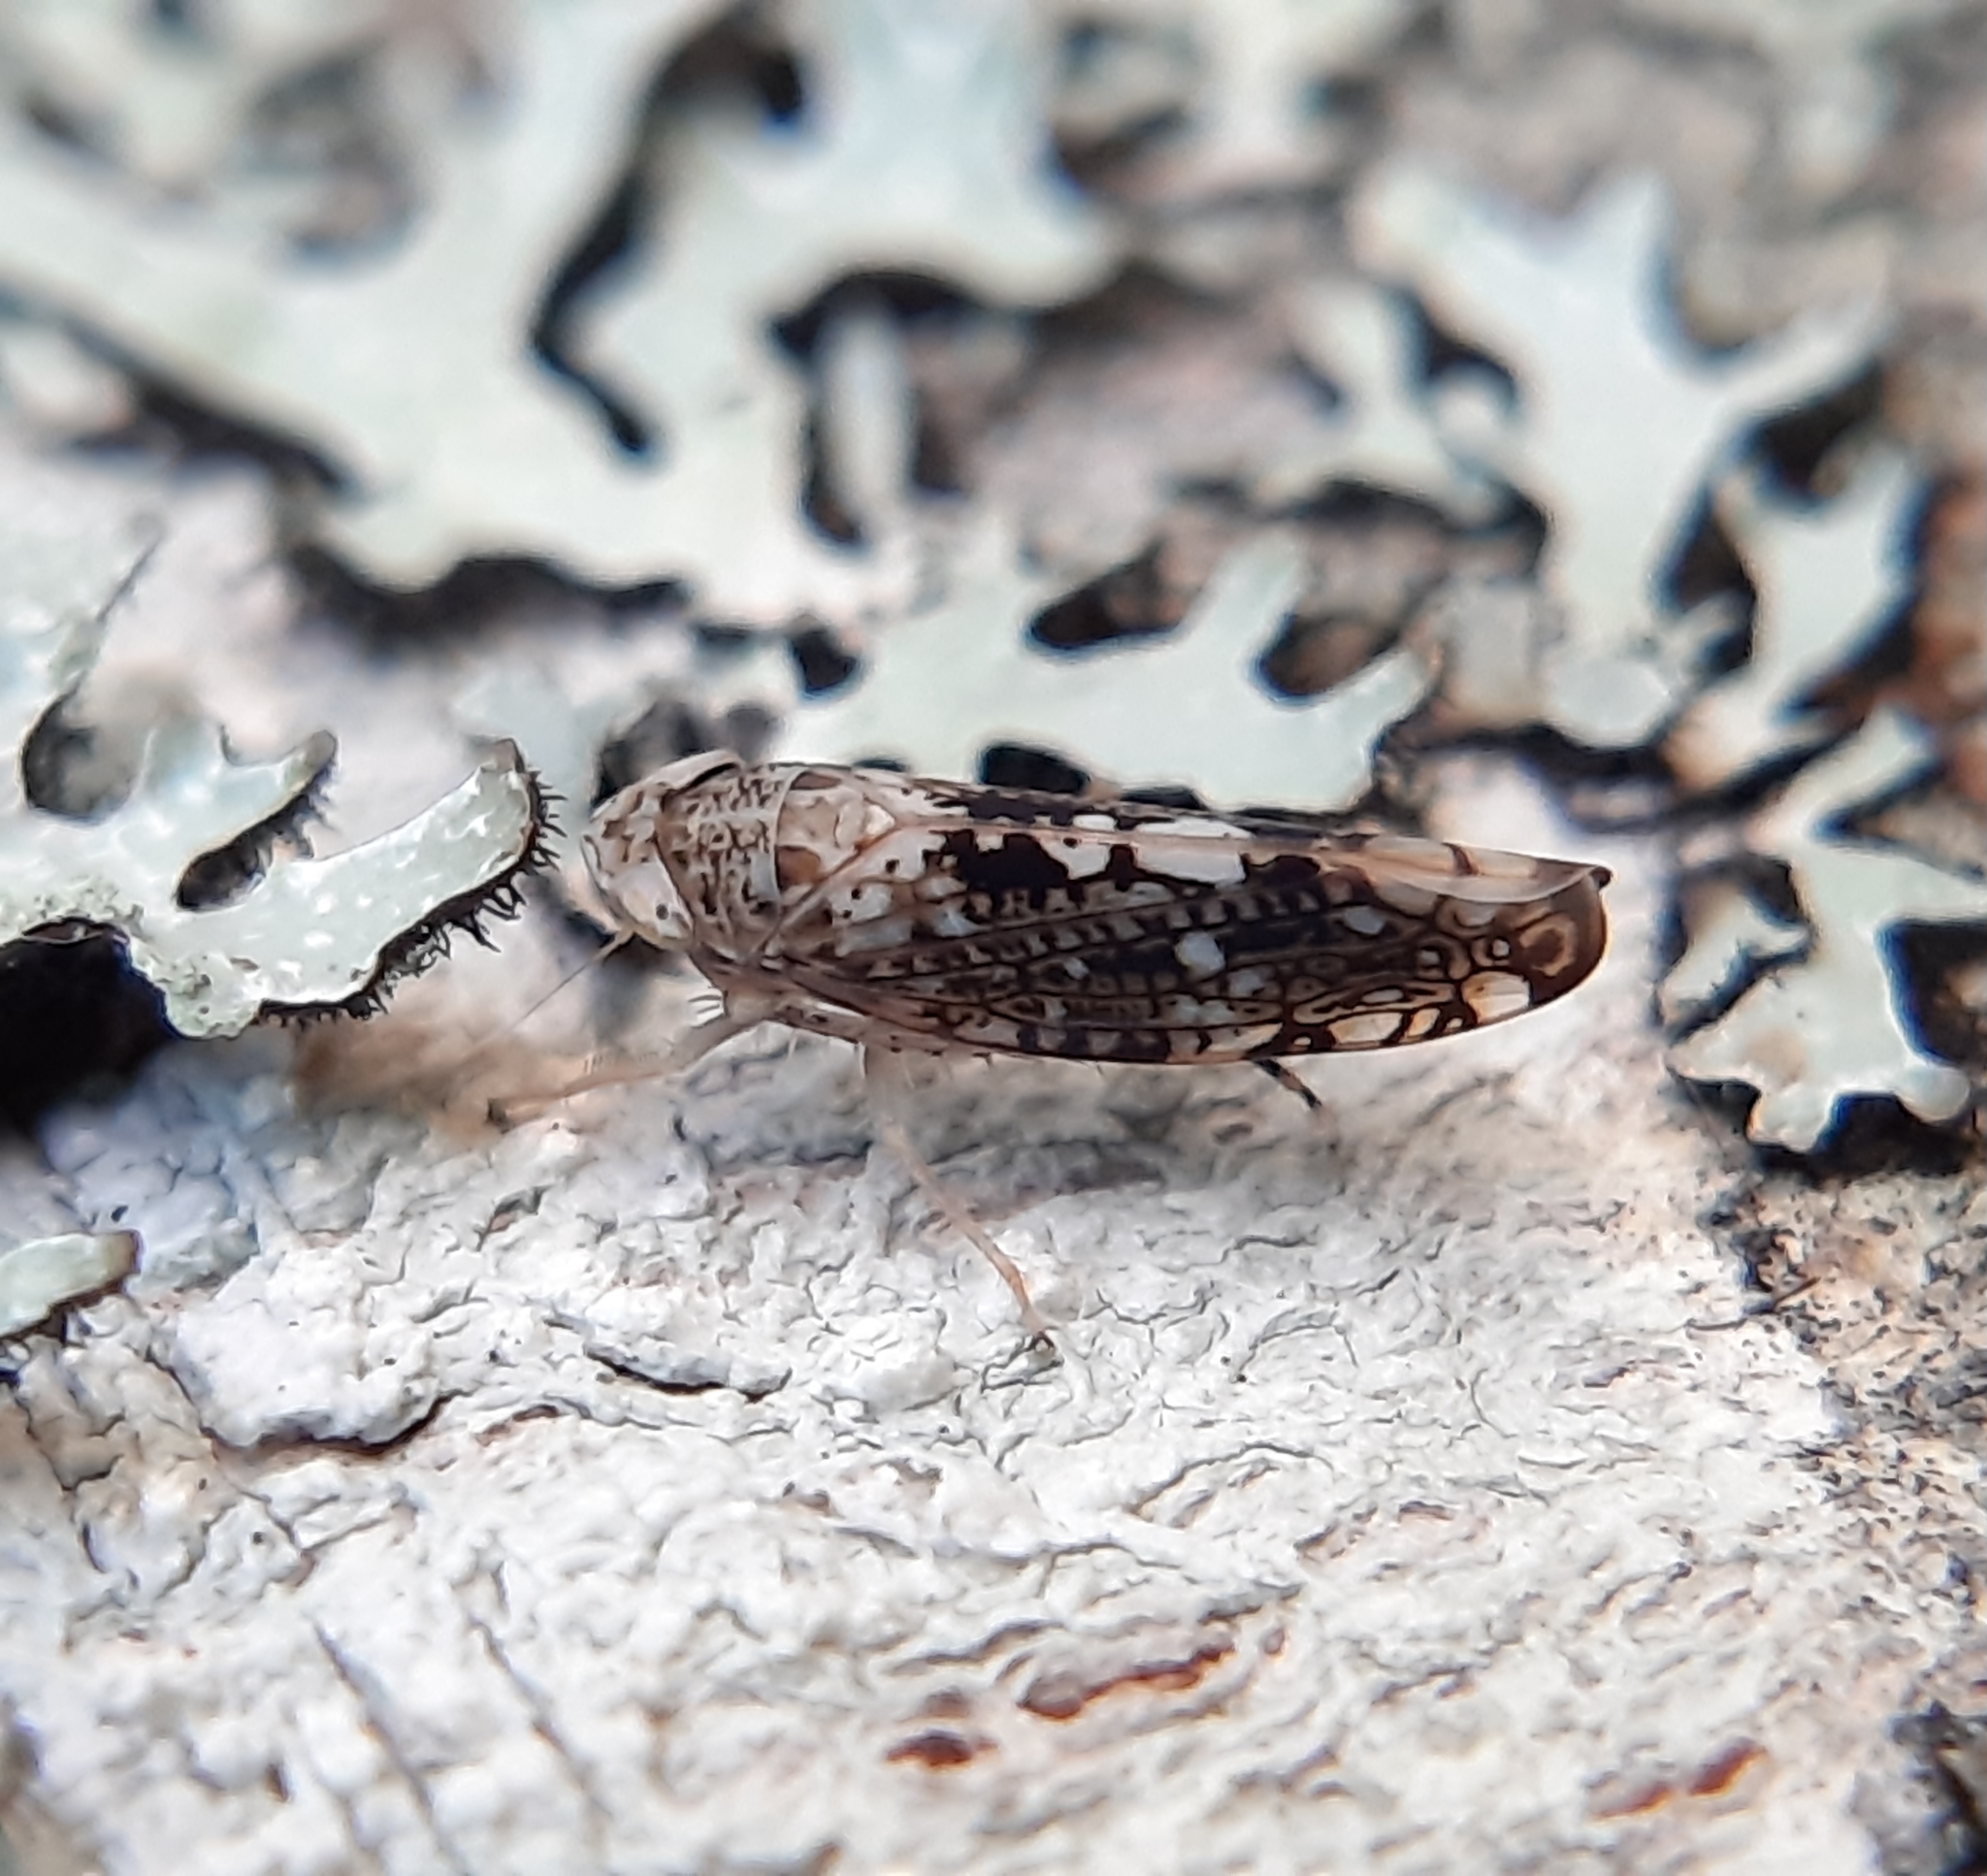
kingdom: Animalia
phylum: Arthropoda
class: Insecta
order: Hemiptera
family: Cicadellidae
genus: Prescottia
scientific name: Prescottia lobata
